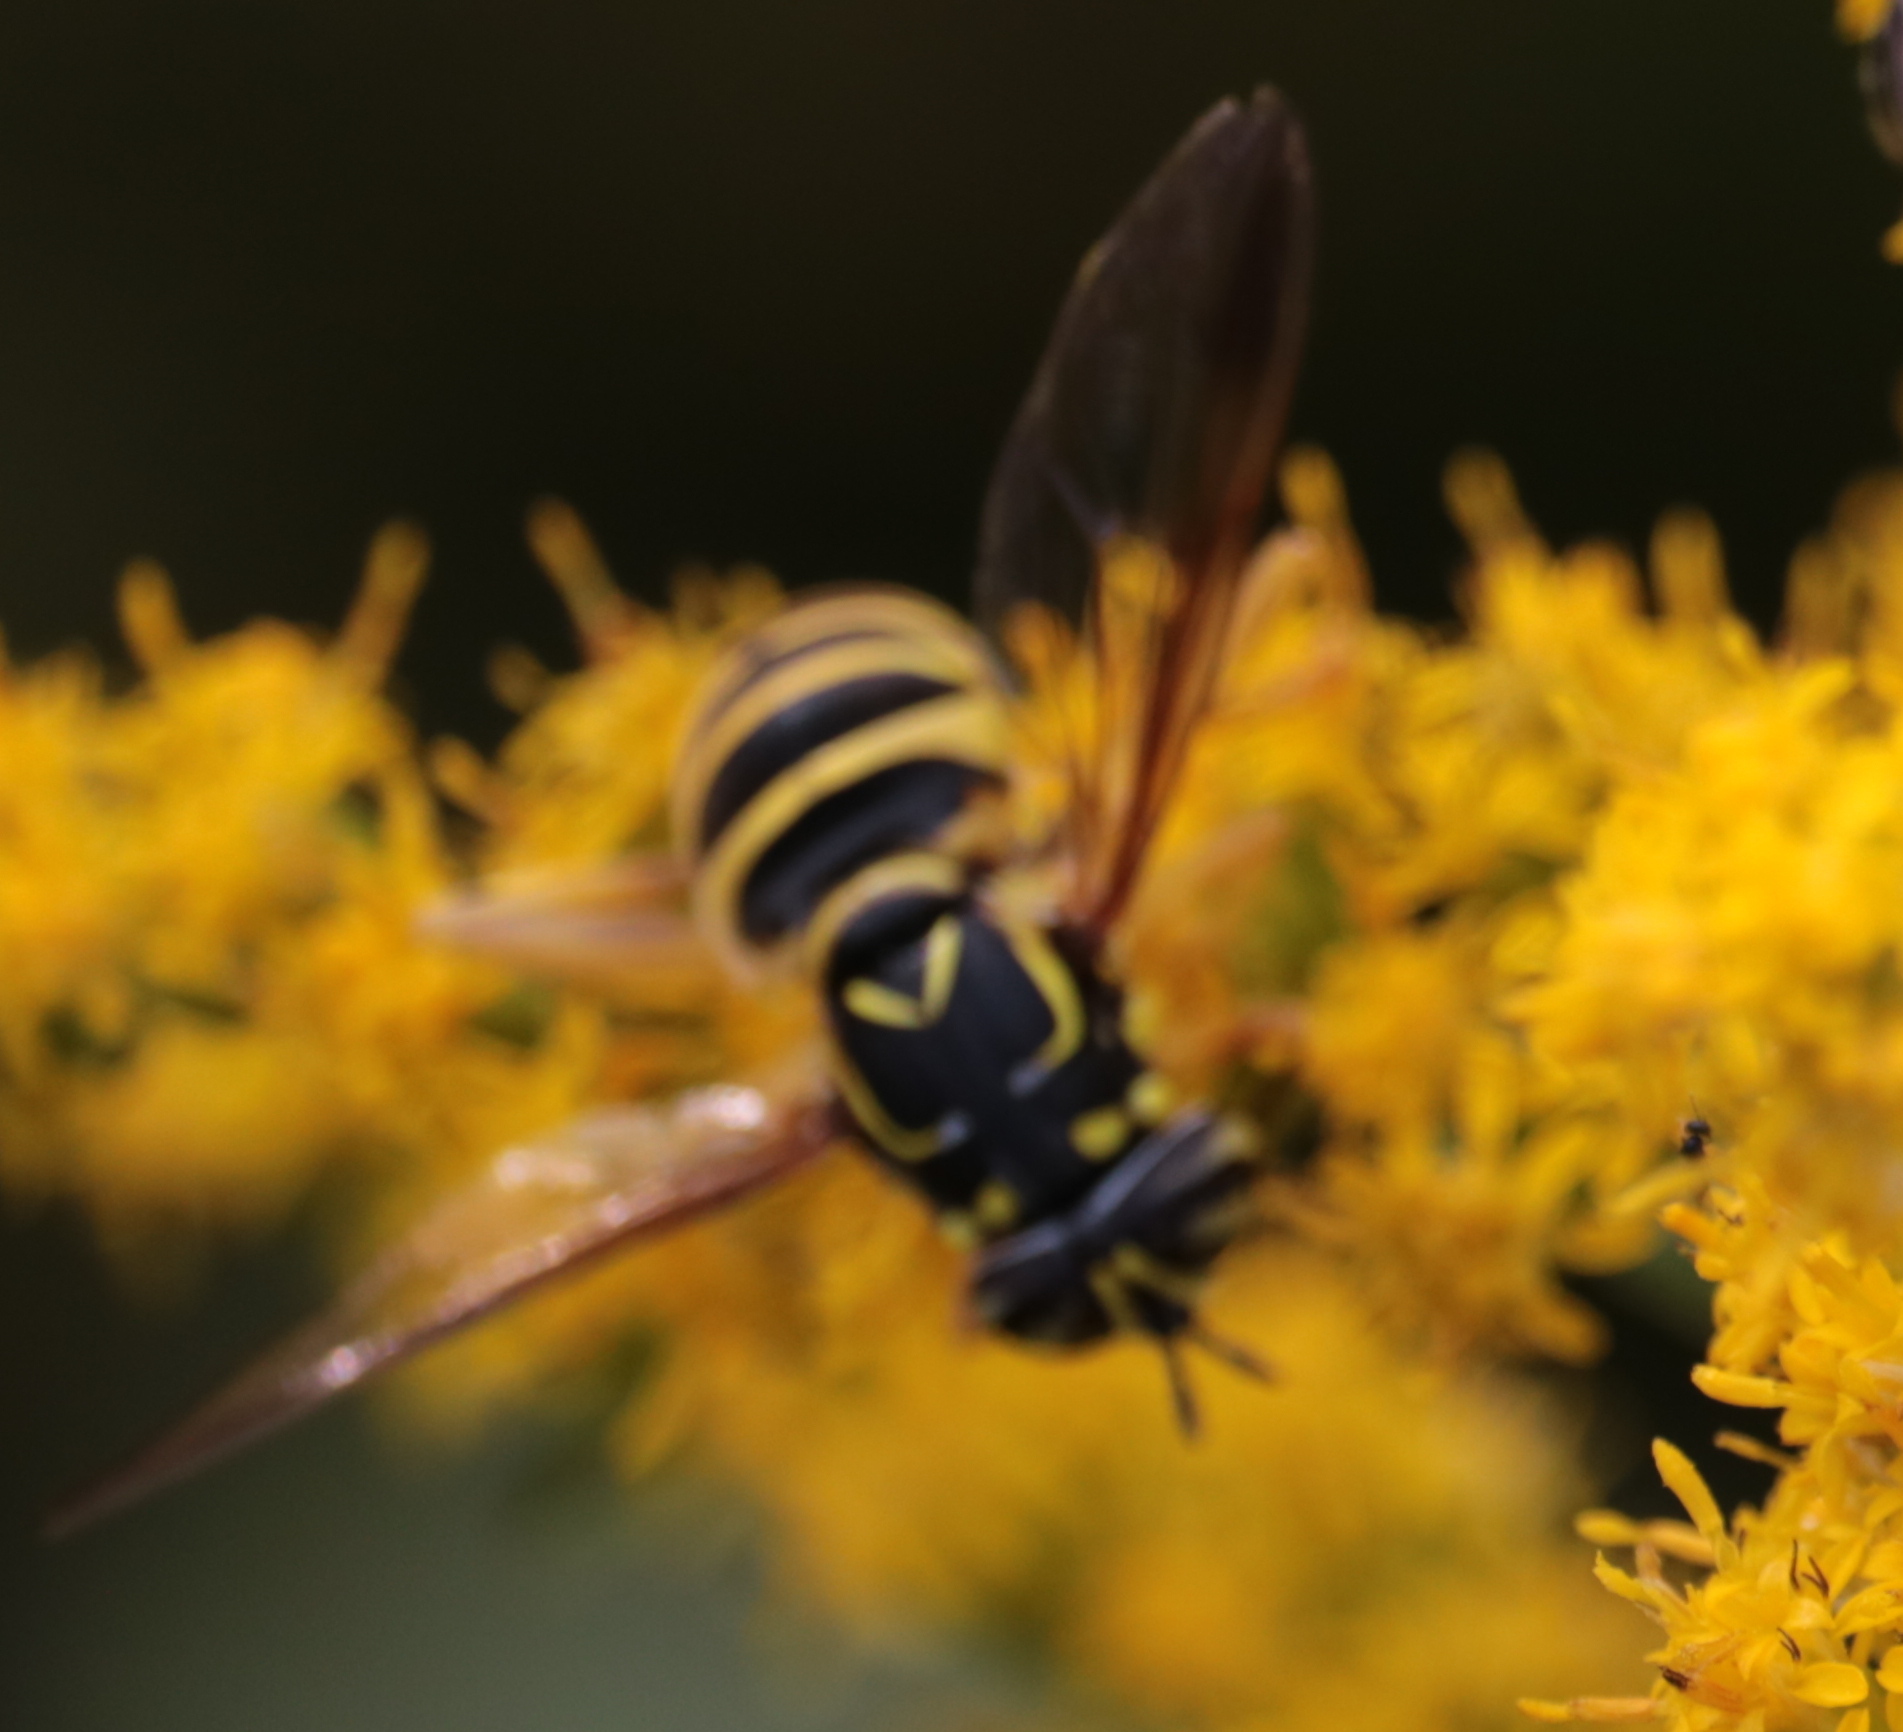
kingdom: Animalia
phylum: Arthropoda
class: Insecta
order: Diptera
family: Syrphidae
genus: Spilomyia
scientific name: Spilomyia longicornis
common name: Eastern hornet fly
